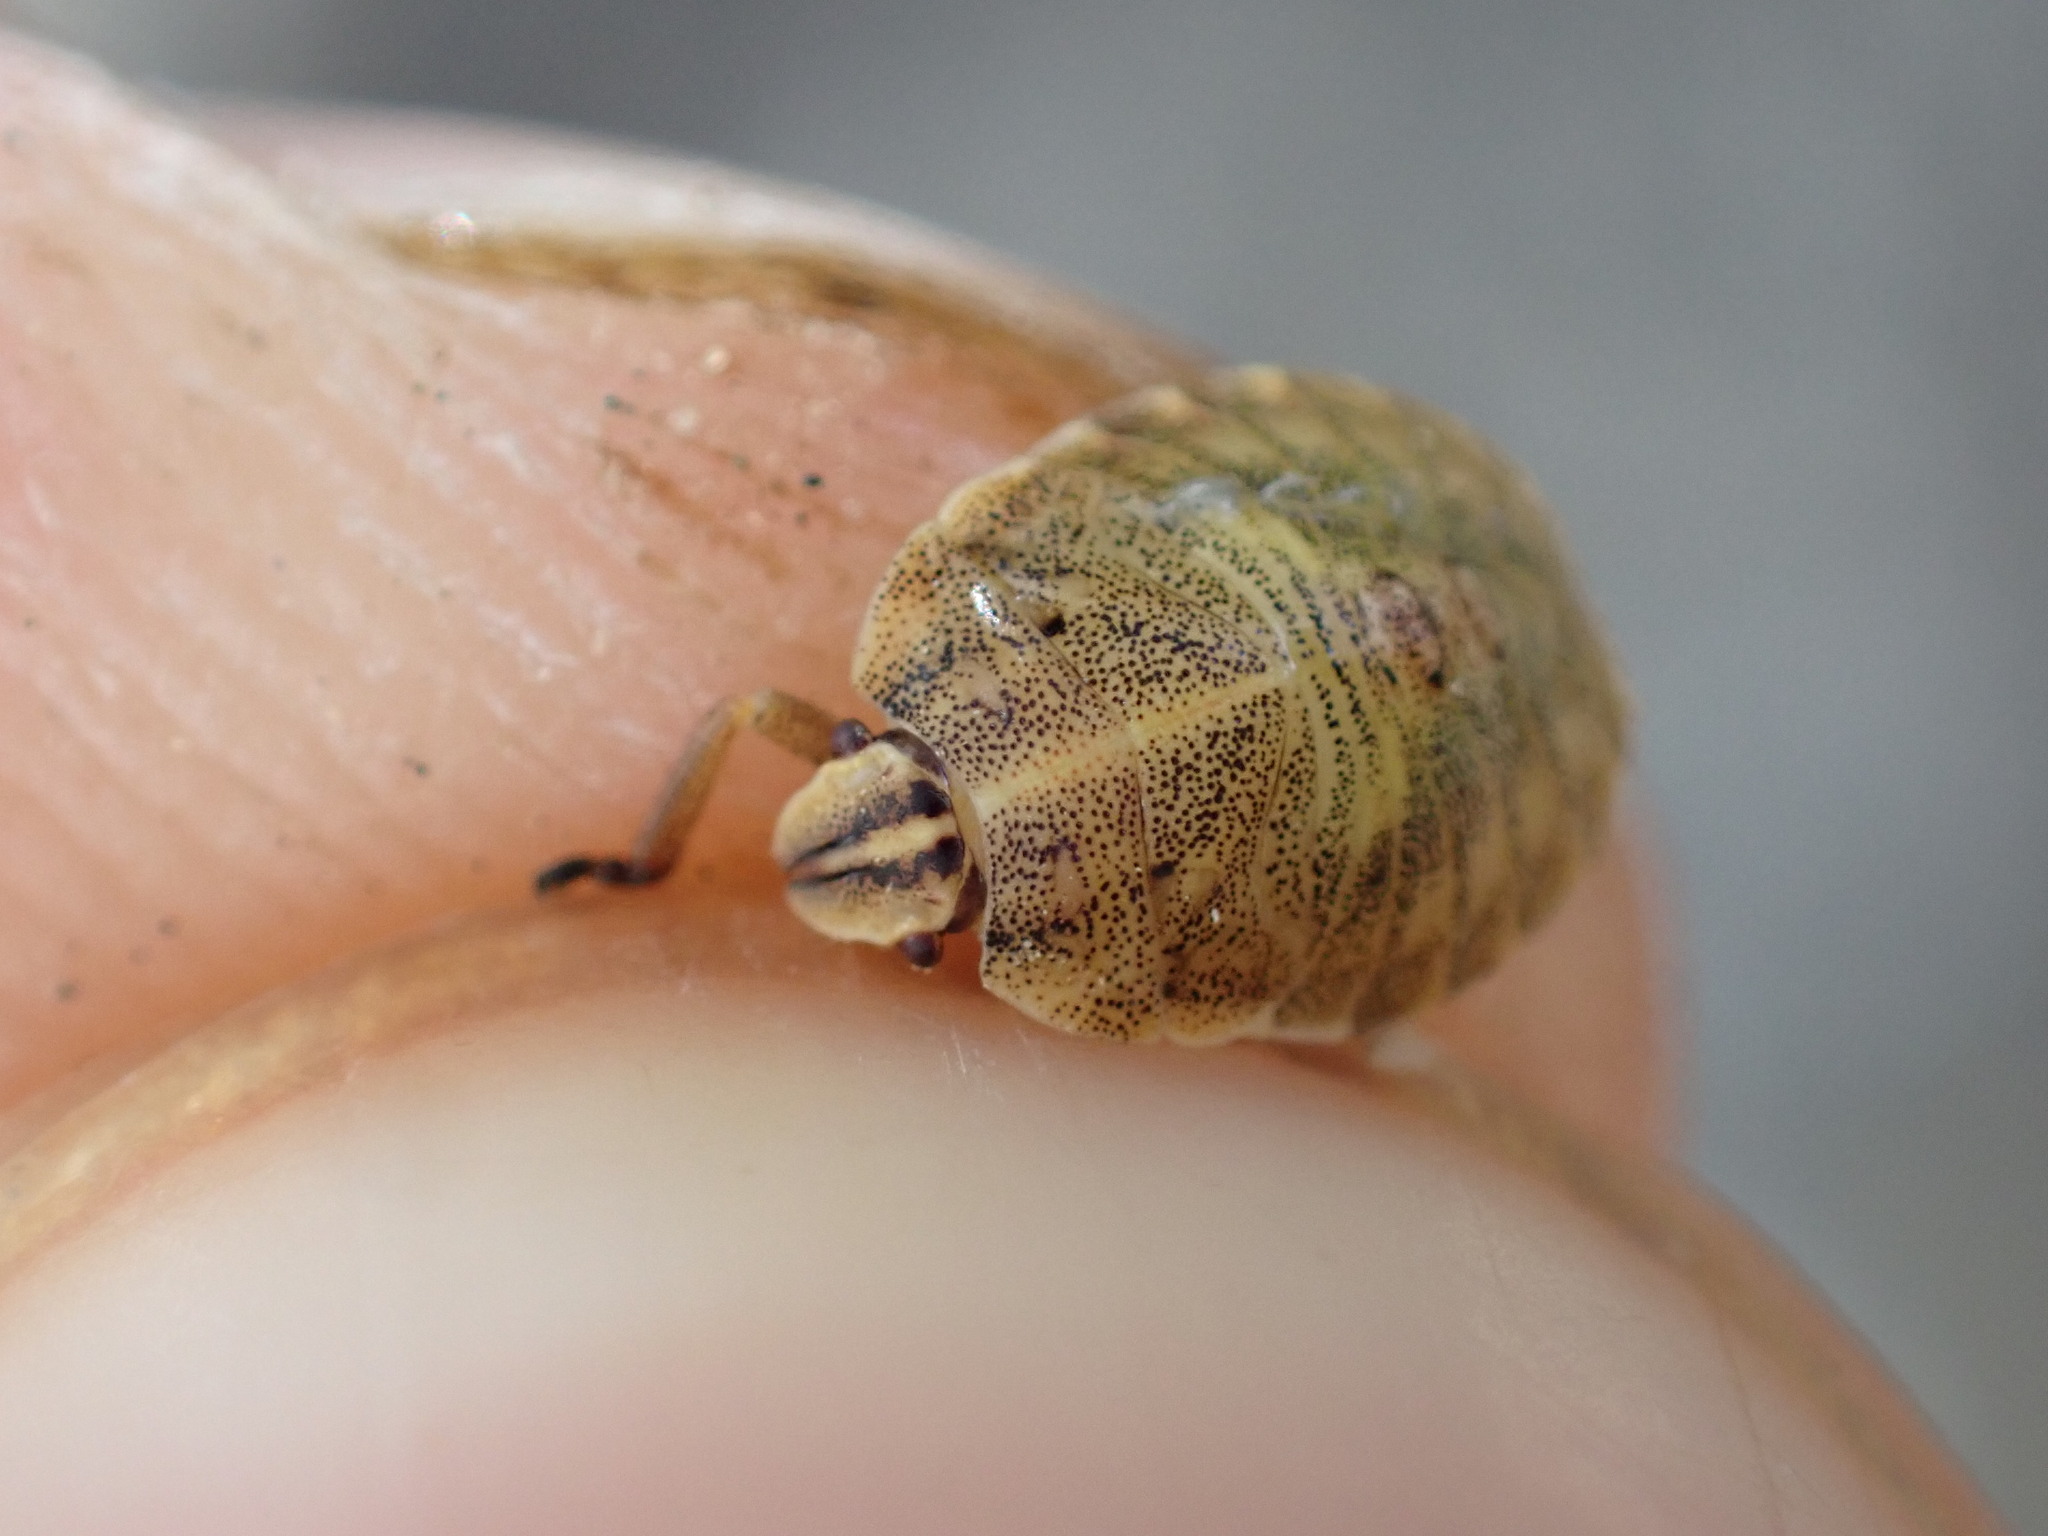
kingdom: Animalia
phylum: Arthropoda
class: Insecta
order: Hemiptera
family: Pentatomidae
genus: Graphosoma
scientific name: Graphosoma italicum
